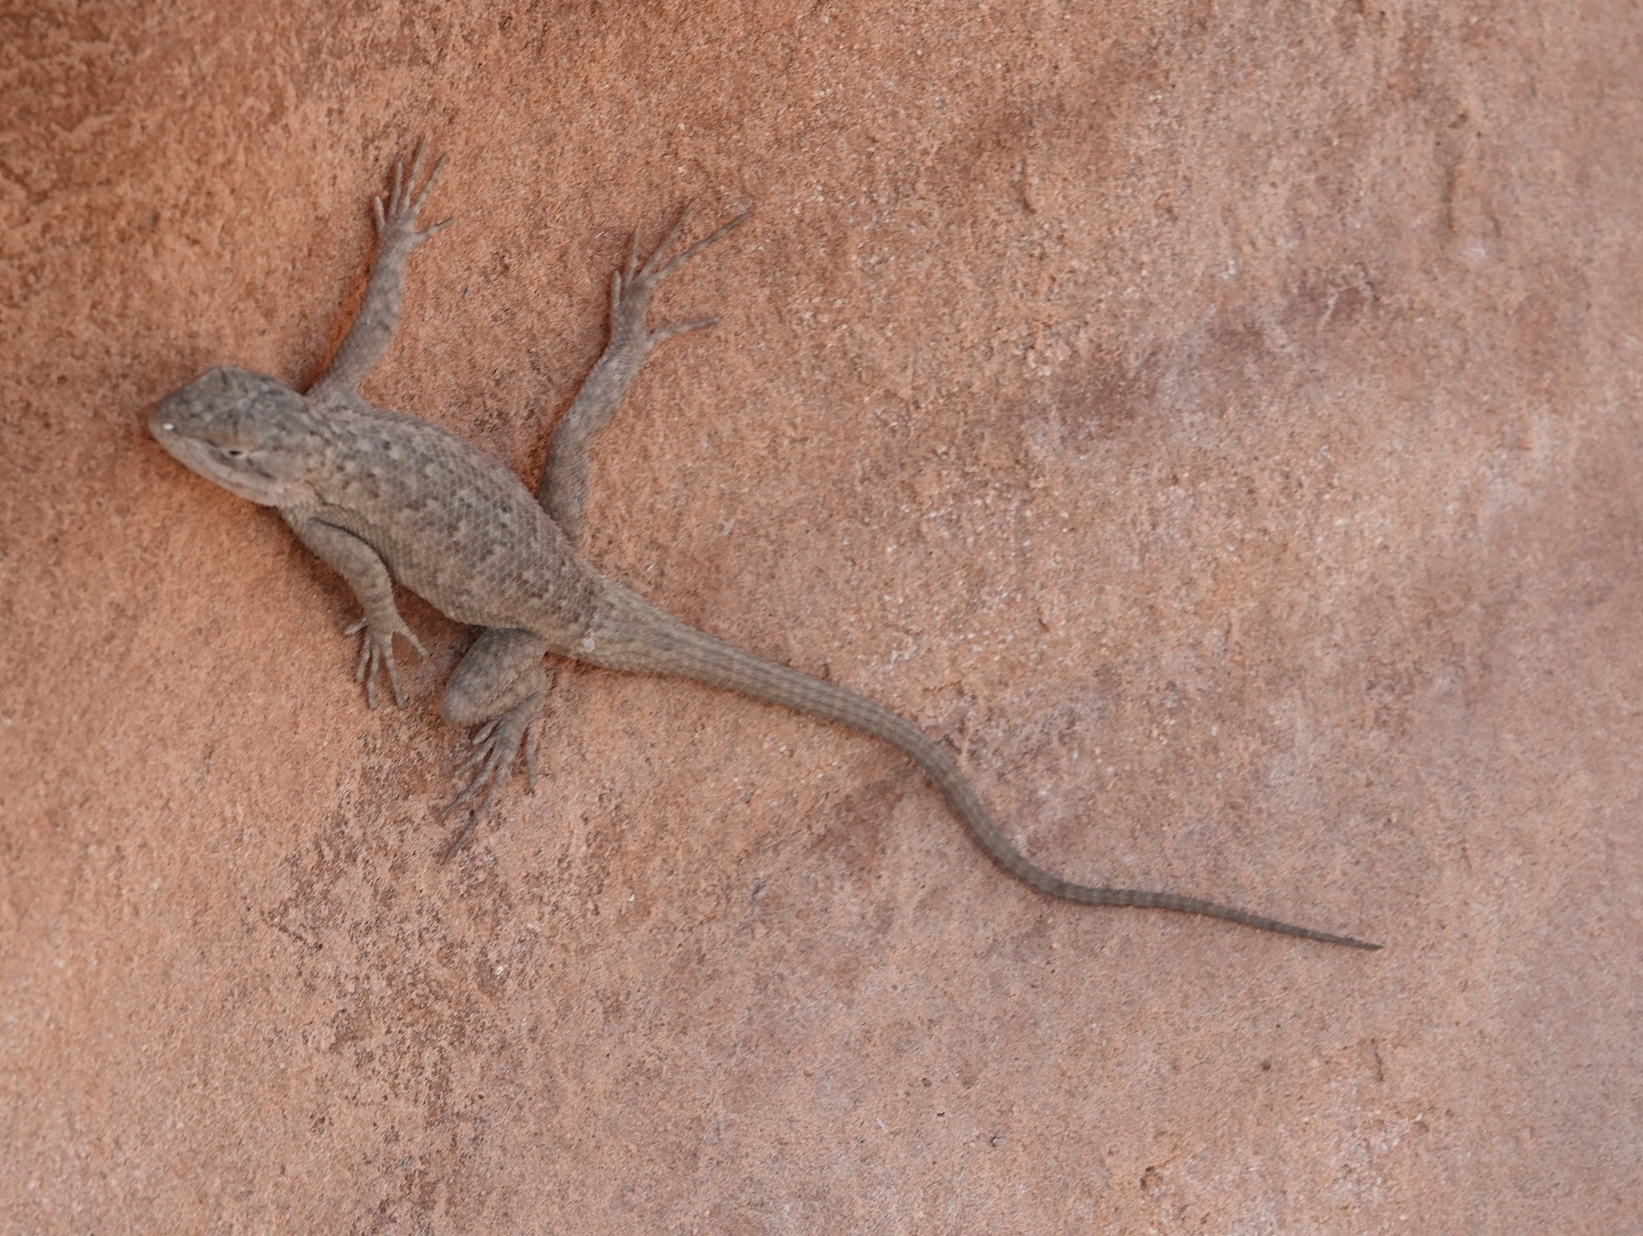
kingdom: Animalia
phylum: Chordata
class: Squamata
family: Phrynosomatidae
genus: Sceloporus
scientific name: Sceloporus tristichus
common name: Plateau fence lizard
